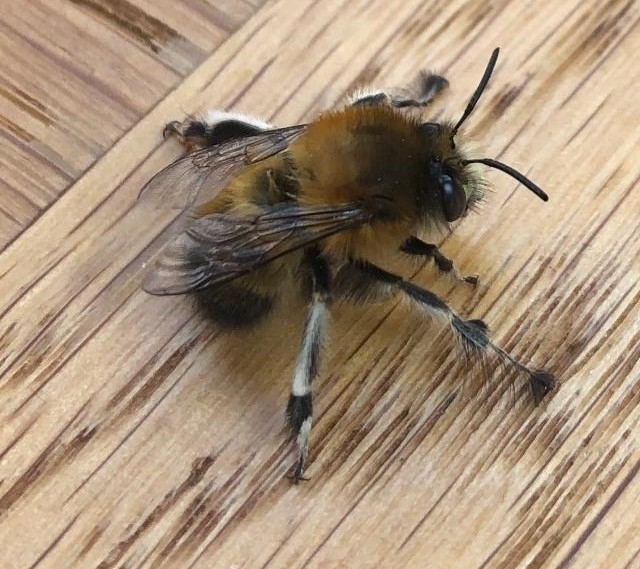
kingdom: Animalia
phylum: Arthropoda
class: Insecta
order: Hymenoptera
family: Apidae
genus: Anthophora
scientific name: Anthophora plumipes
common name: Hairy-footed flower bee
